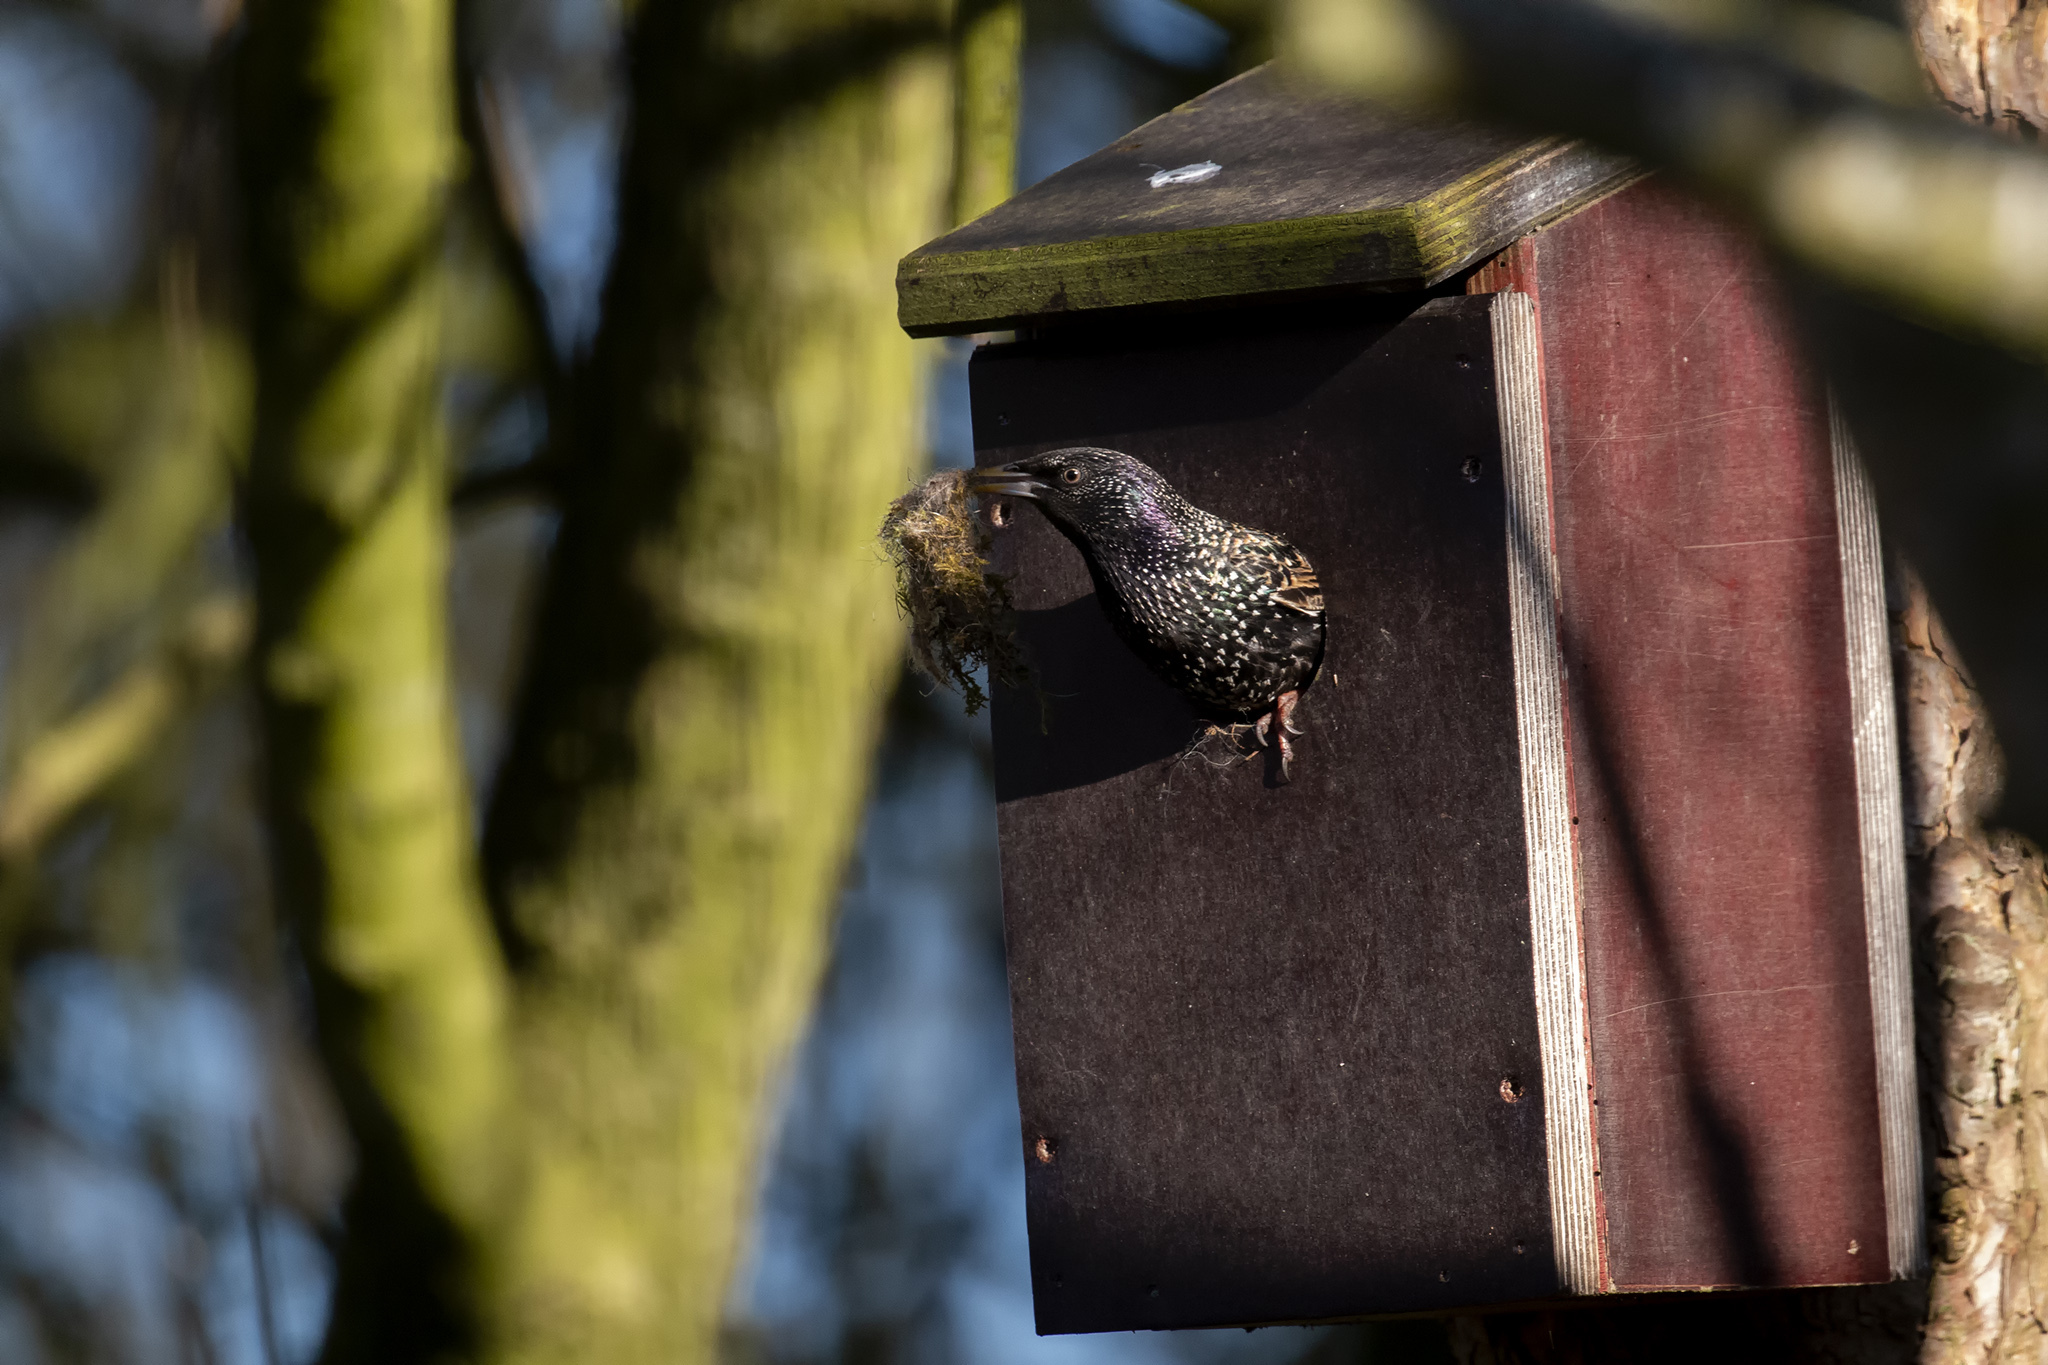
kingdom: Animalia
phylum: Chordata
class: Aves
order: Passeriformes
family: Sturnidae
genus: Sturnus
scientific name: Sturnus vulgaris
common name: Common starling
